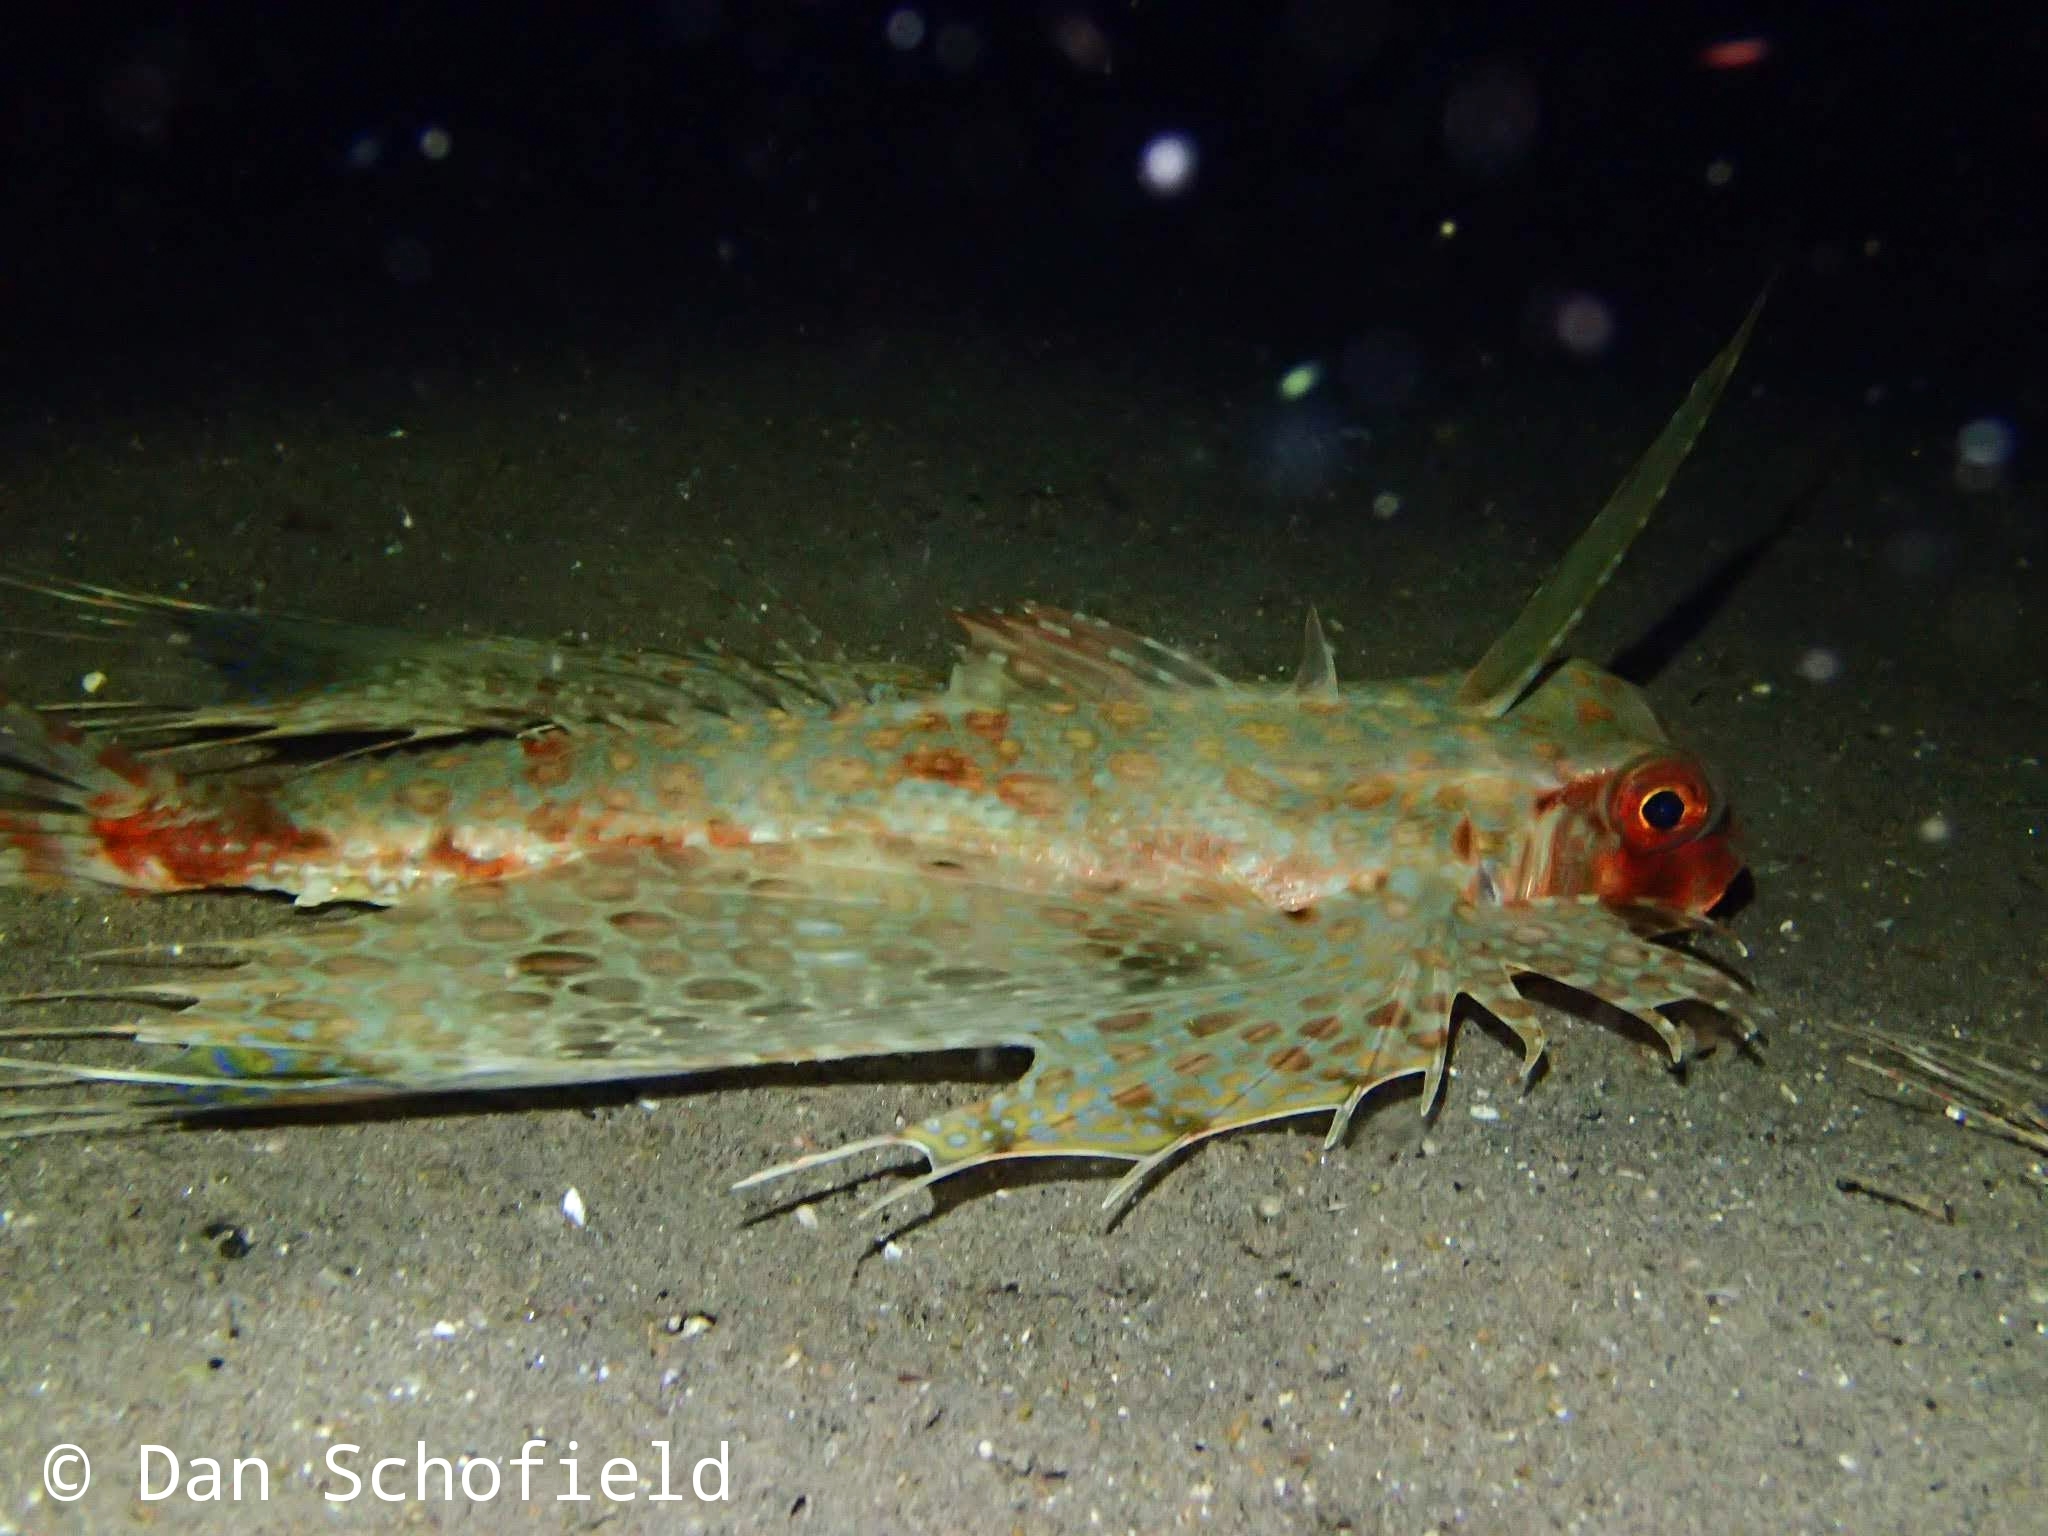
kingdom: Animalia
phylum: Chordata
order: Scorpaeniformes
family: Dactylopteridae
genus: Dactyloptena
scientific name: Dactyloptena orientalis
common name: Flying gurnard
